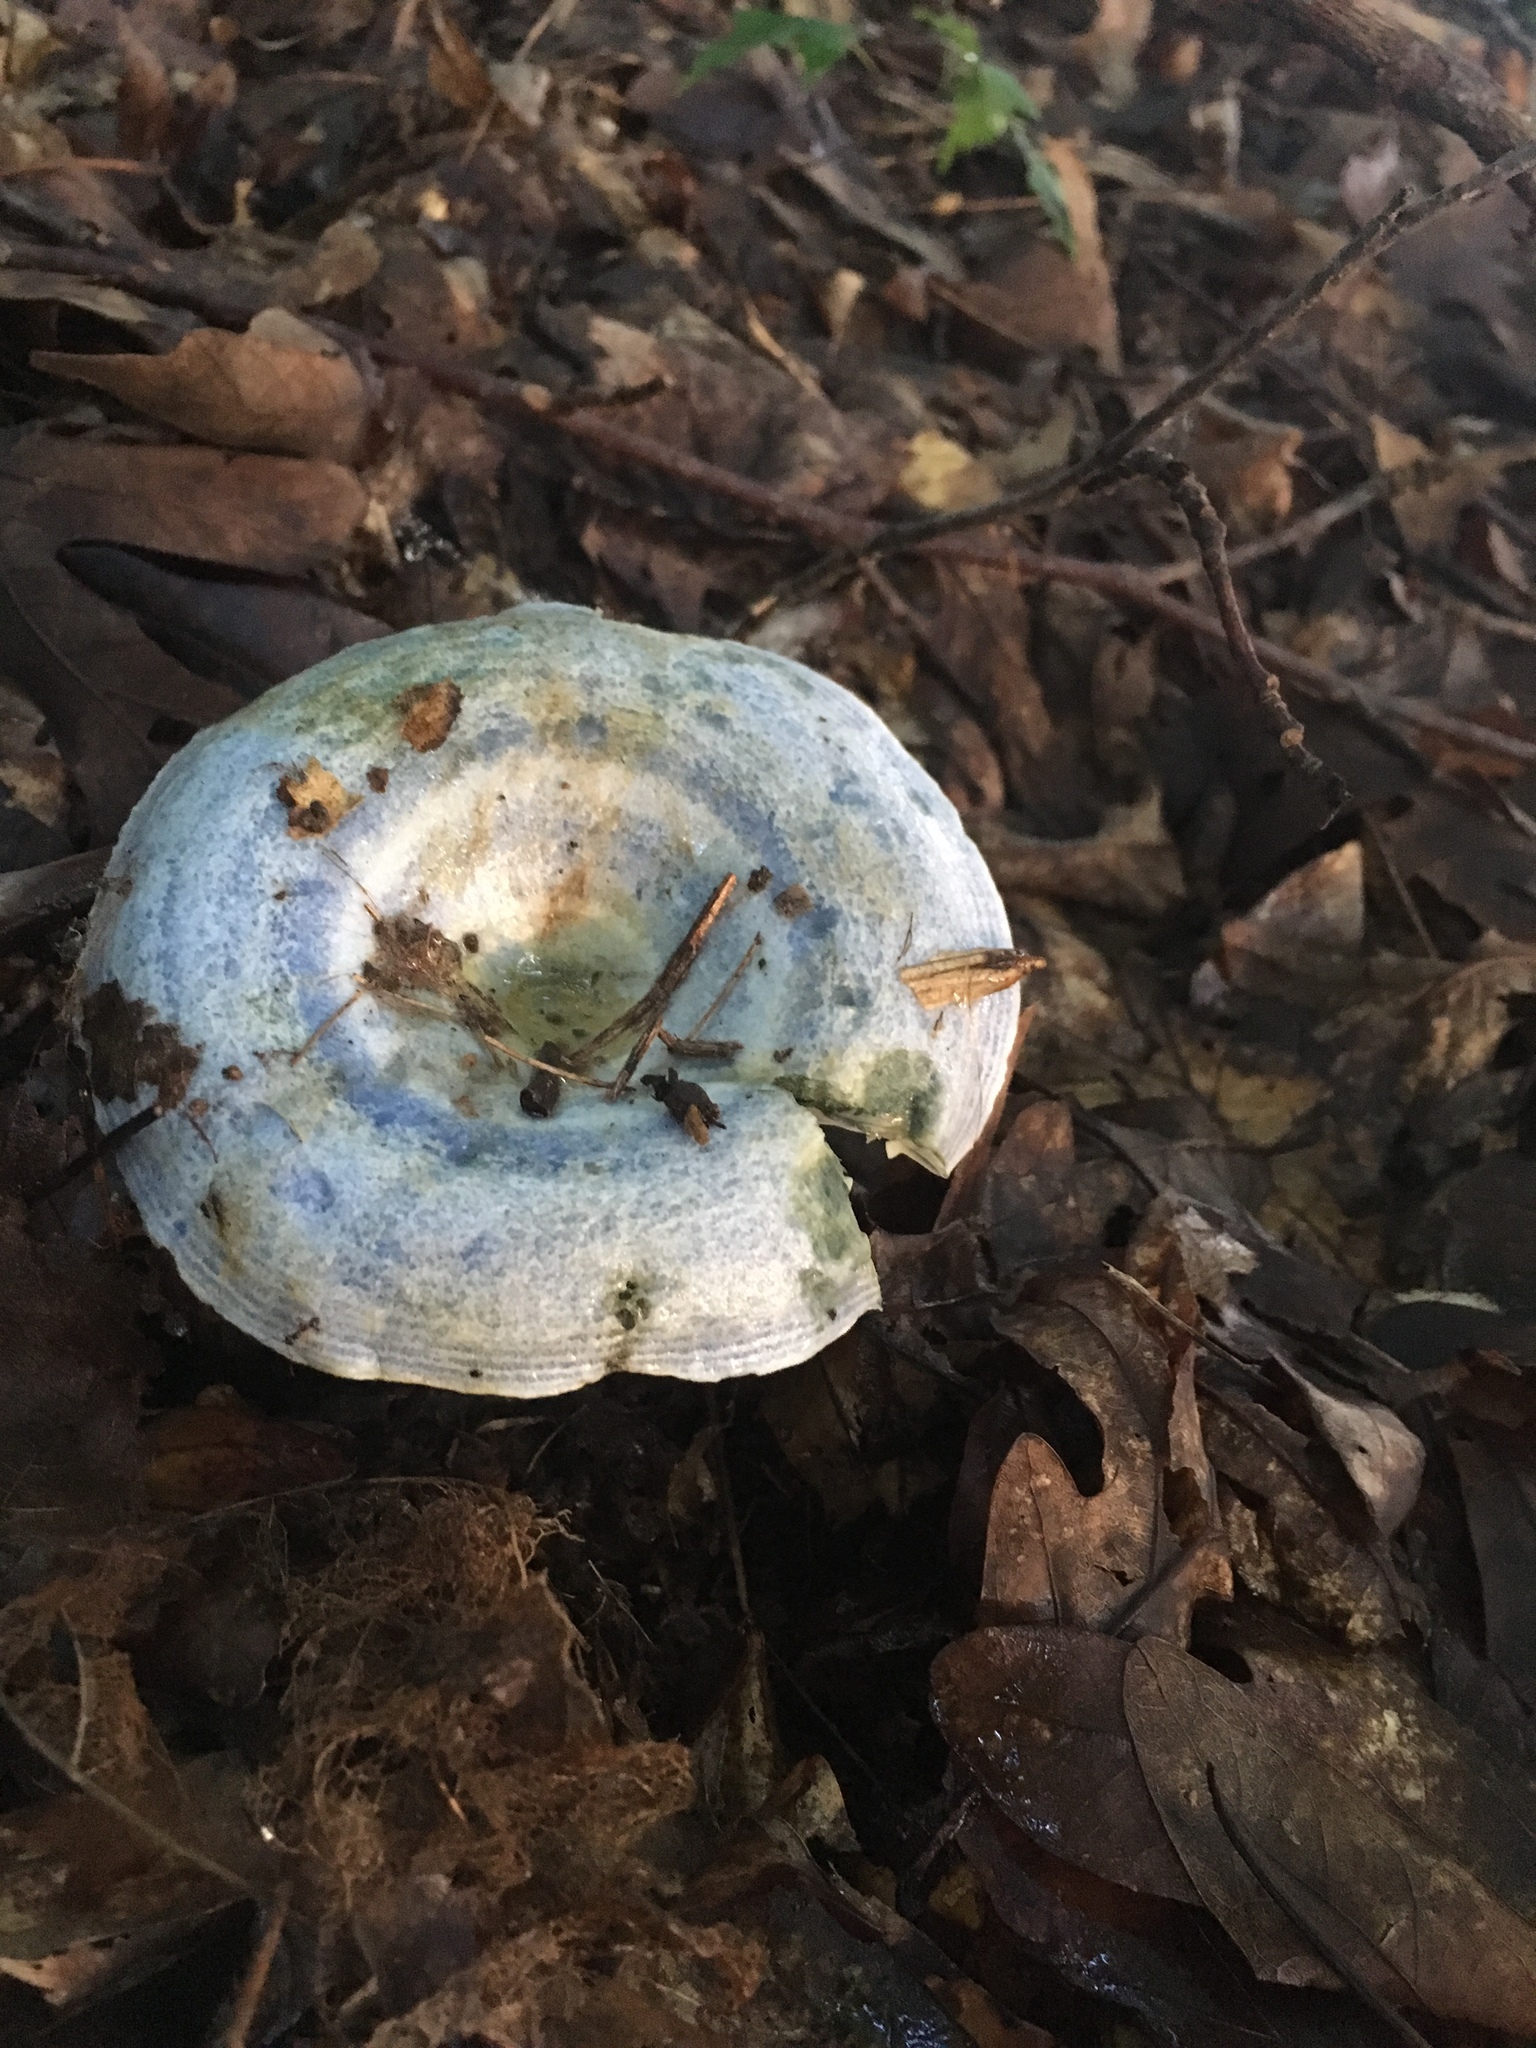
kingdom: Fungi
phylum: Basidiomycota
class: Agaricomycetes
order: Russulales
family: Russulaceae
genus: Lactarius
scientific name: Lactarius indigo
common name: Indigo milk cap
